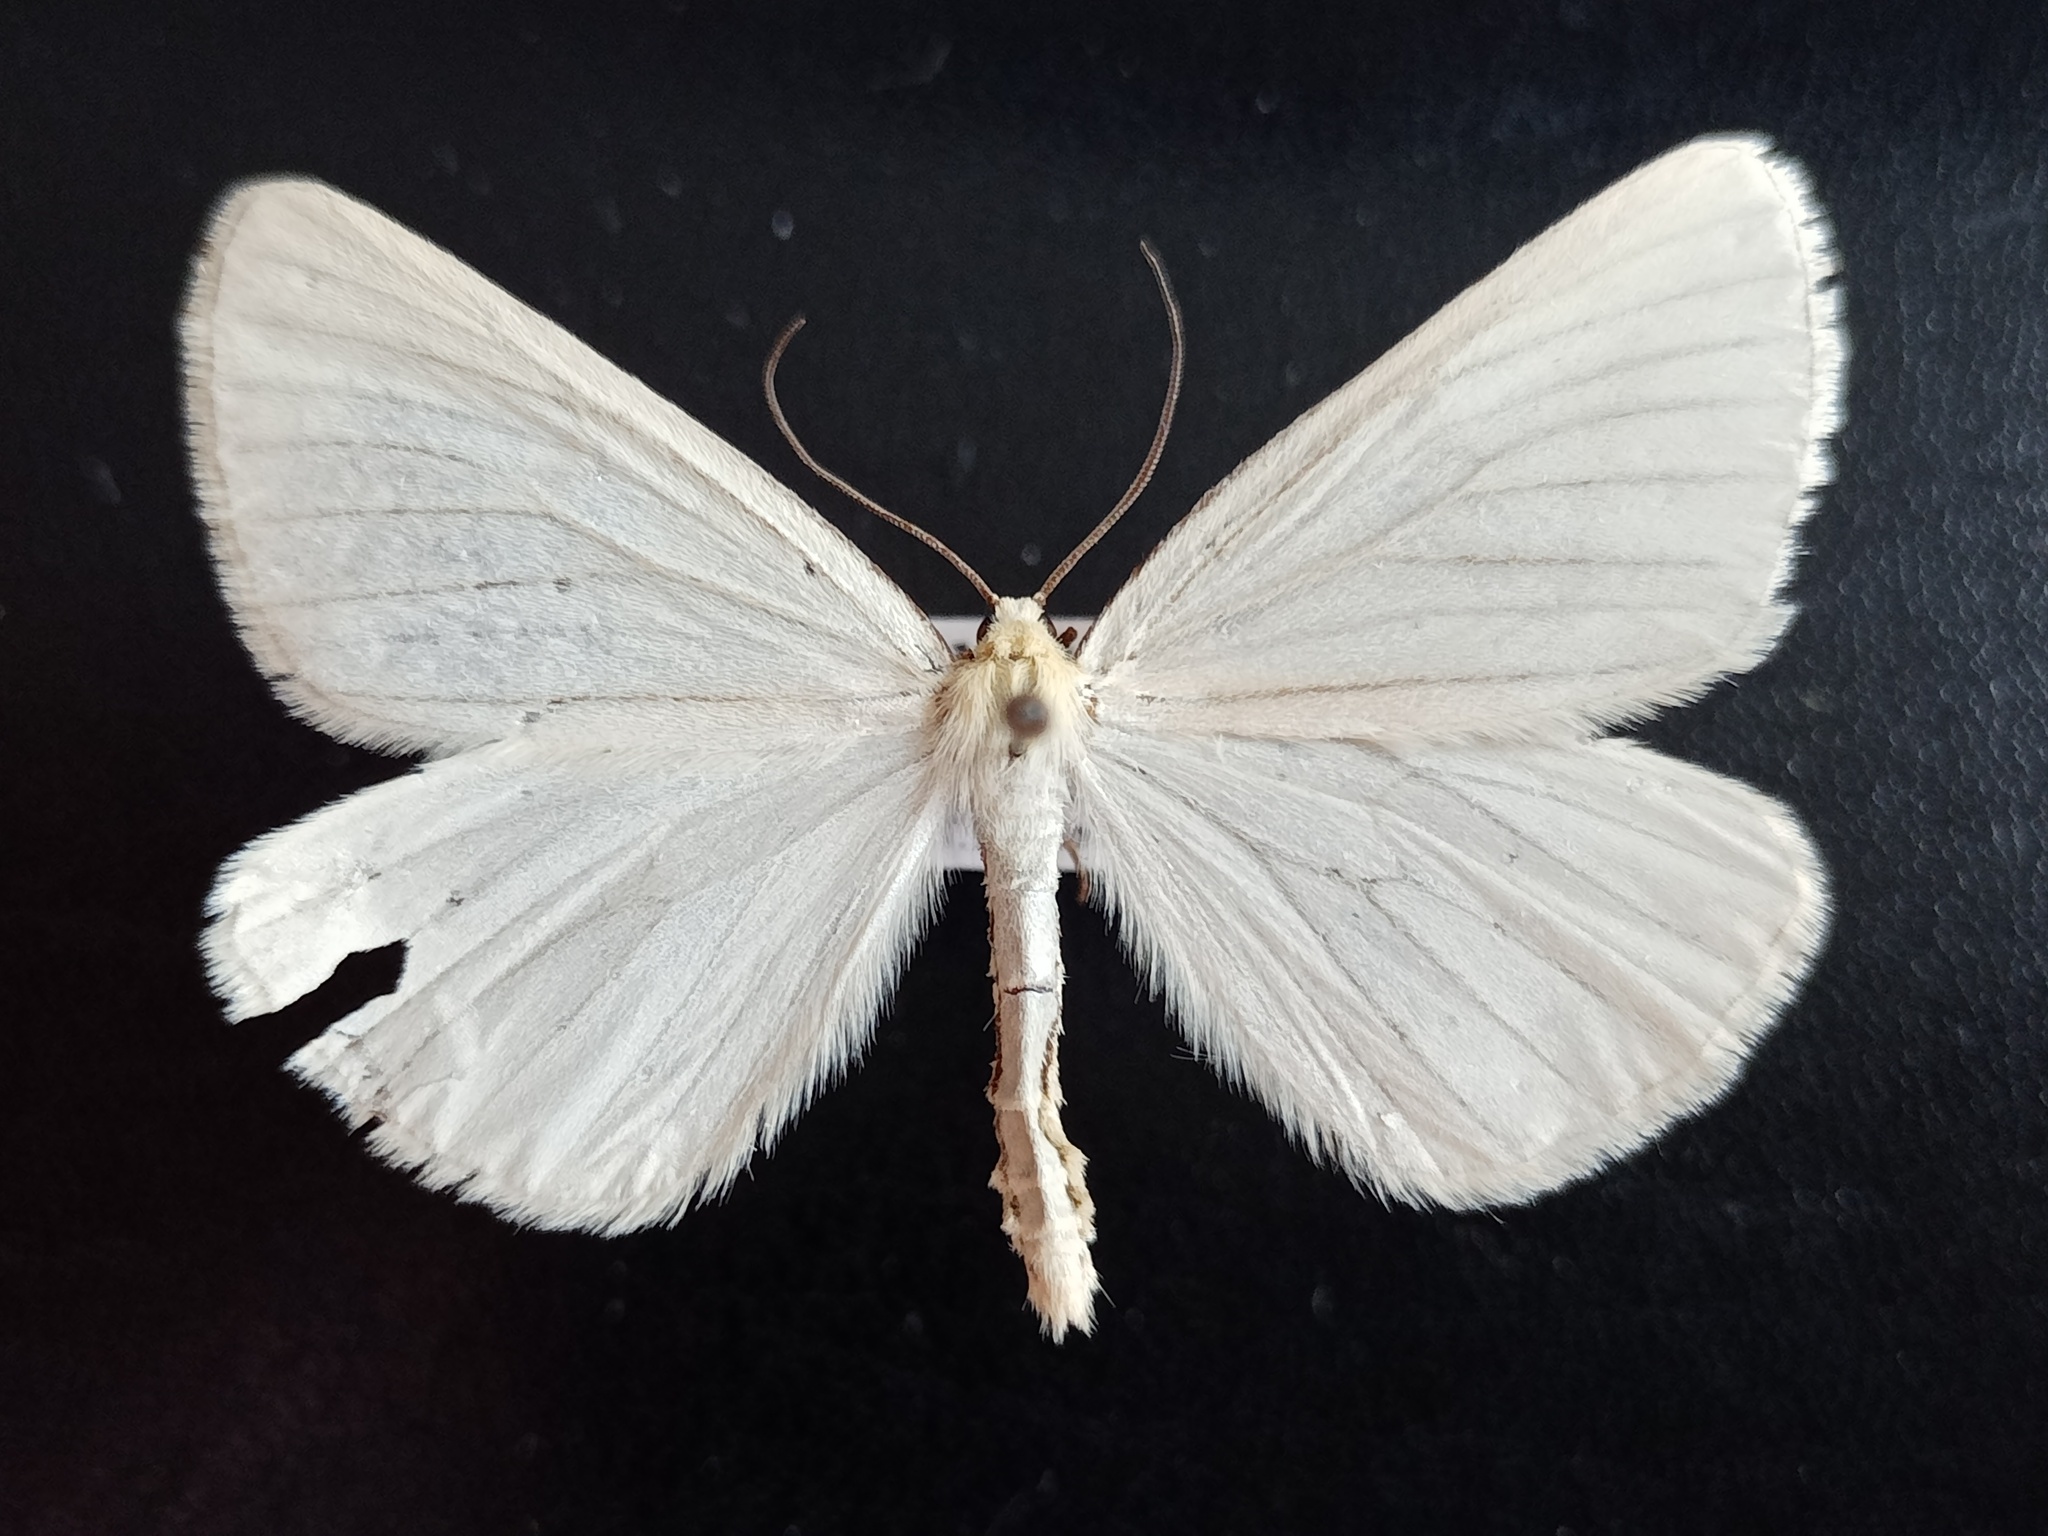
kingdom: Animalia
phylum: Arthropoda
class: Insecta
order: Lepidoptera
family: Geometridae
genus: Siona
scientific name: Siona lineata
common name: Black-veined moth
